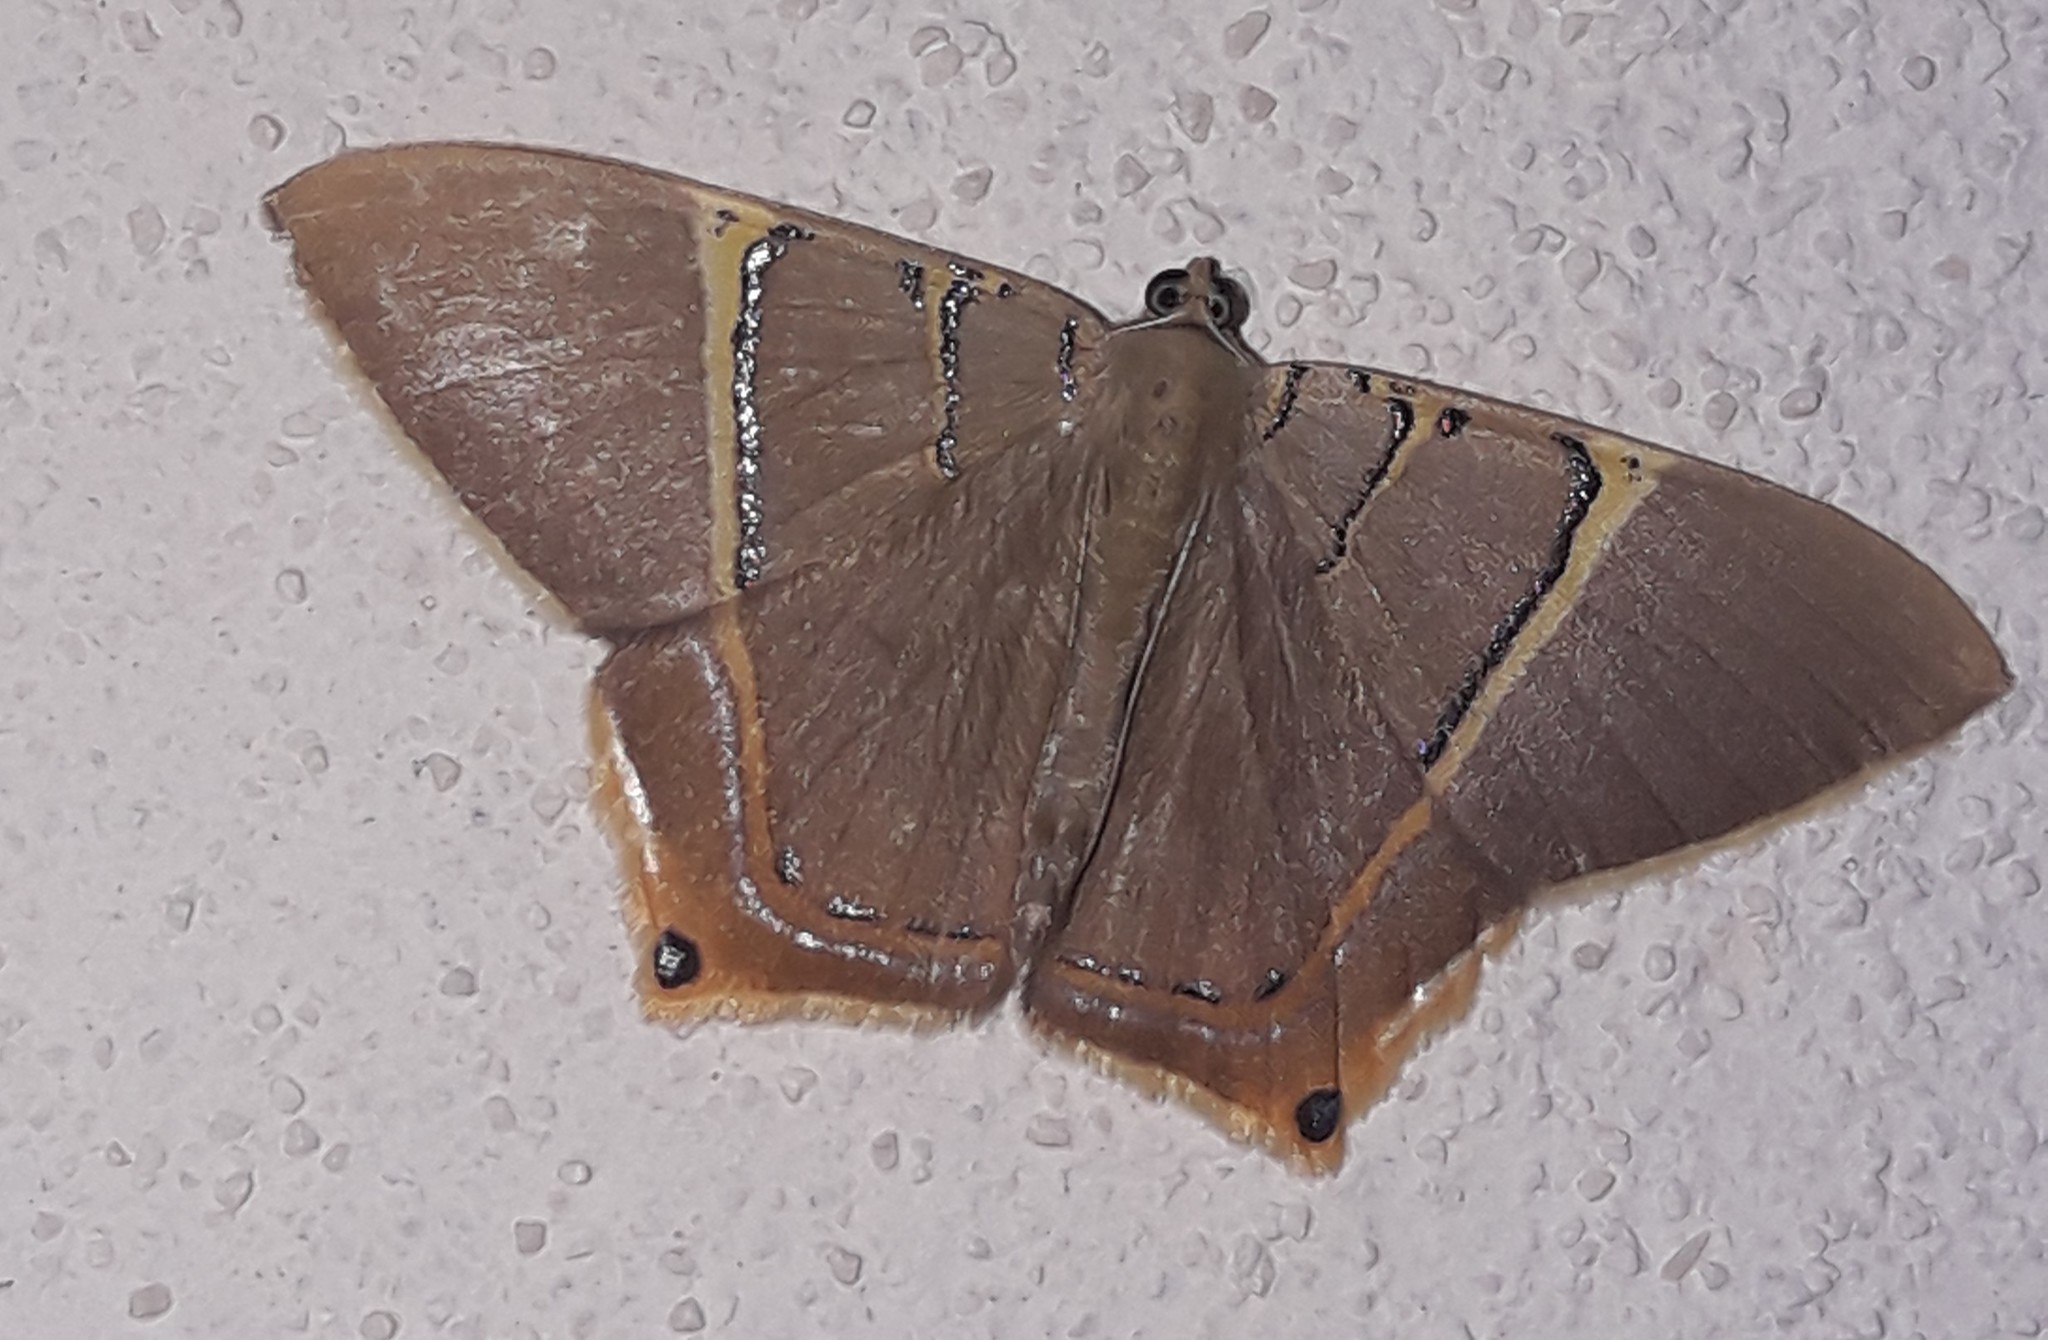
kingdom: Animalia
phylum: Arthropoda
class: Insecta
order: Lepidoptera
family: Geometridae
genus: Phrygionis
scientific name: Phrygionis polita
